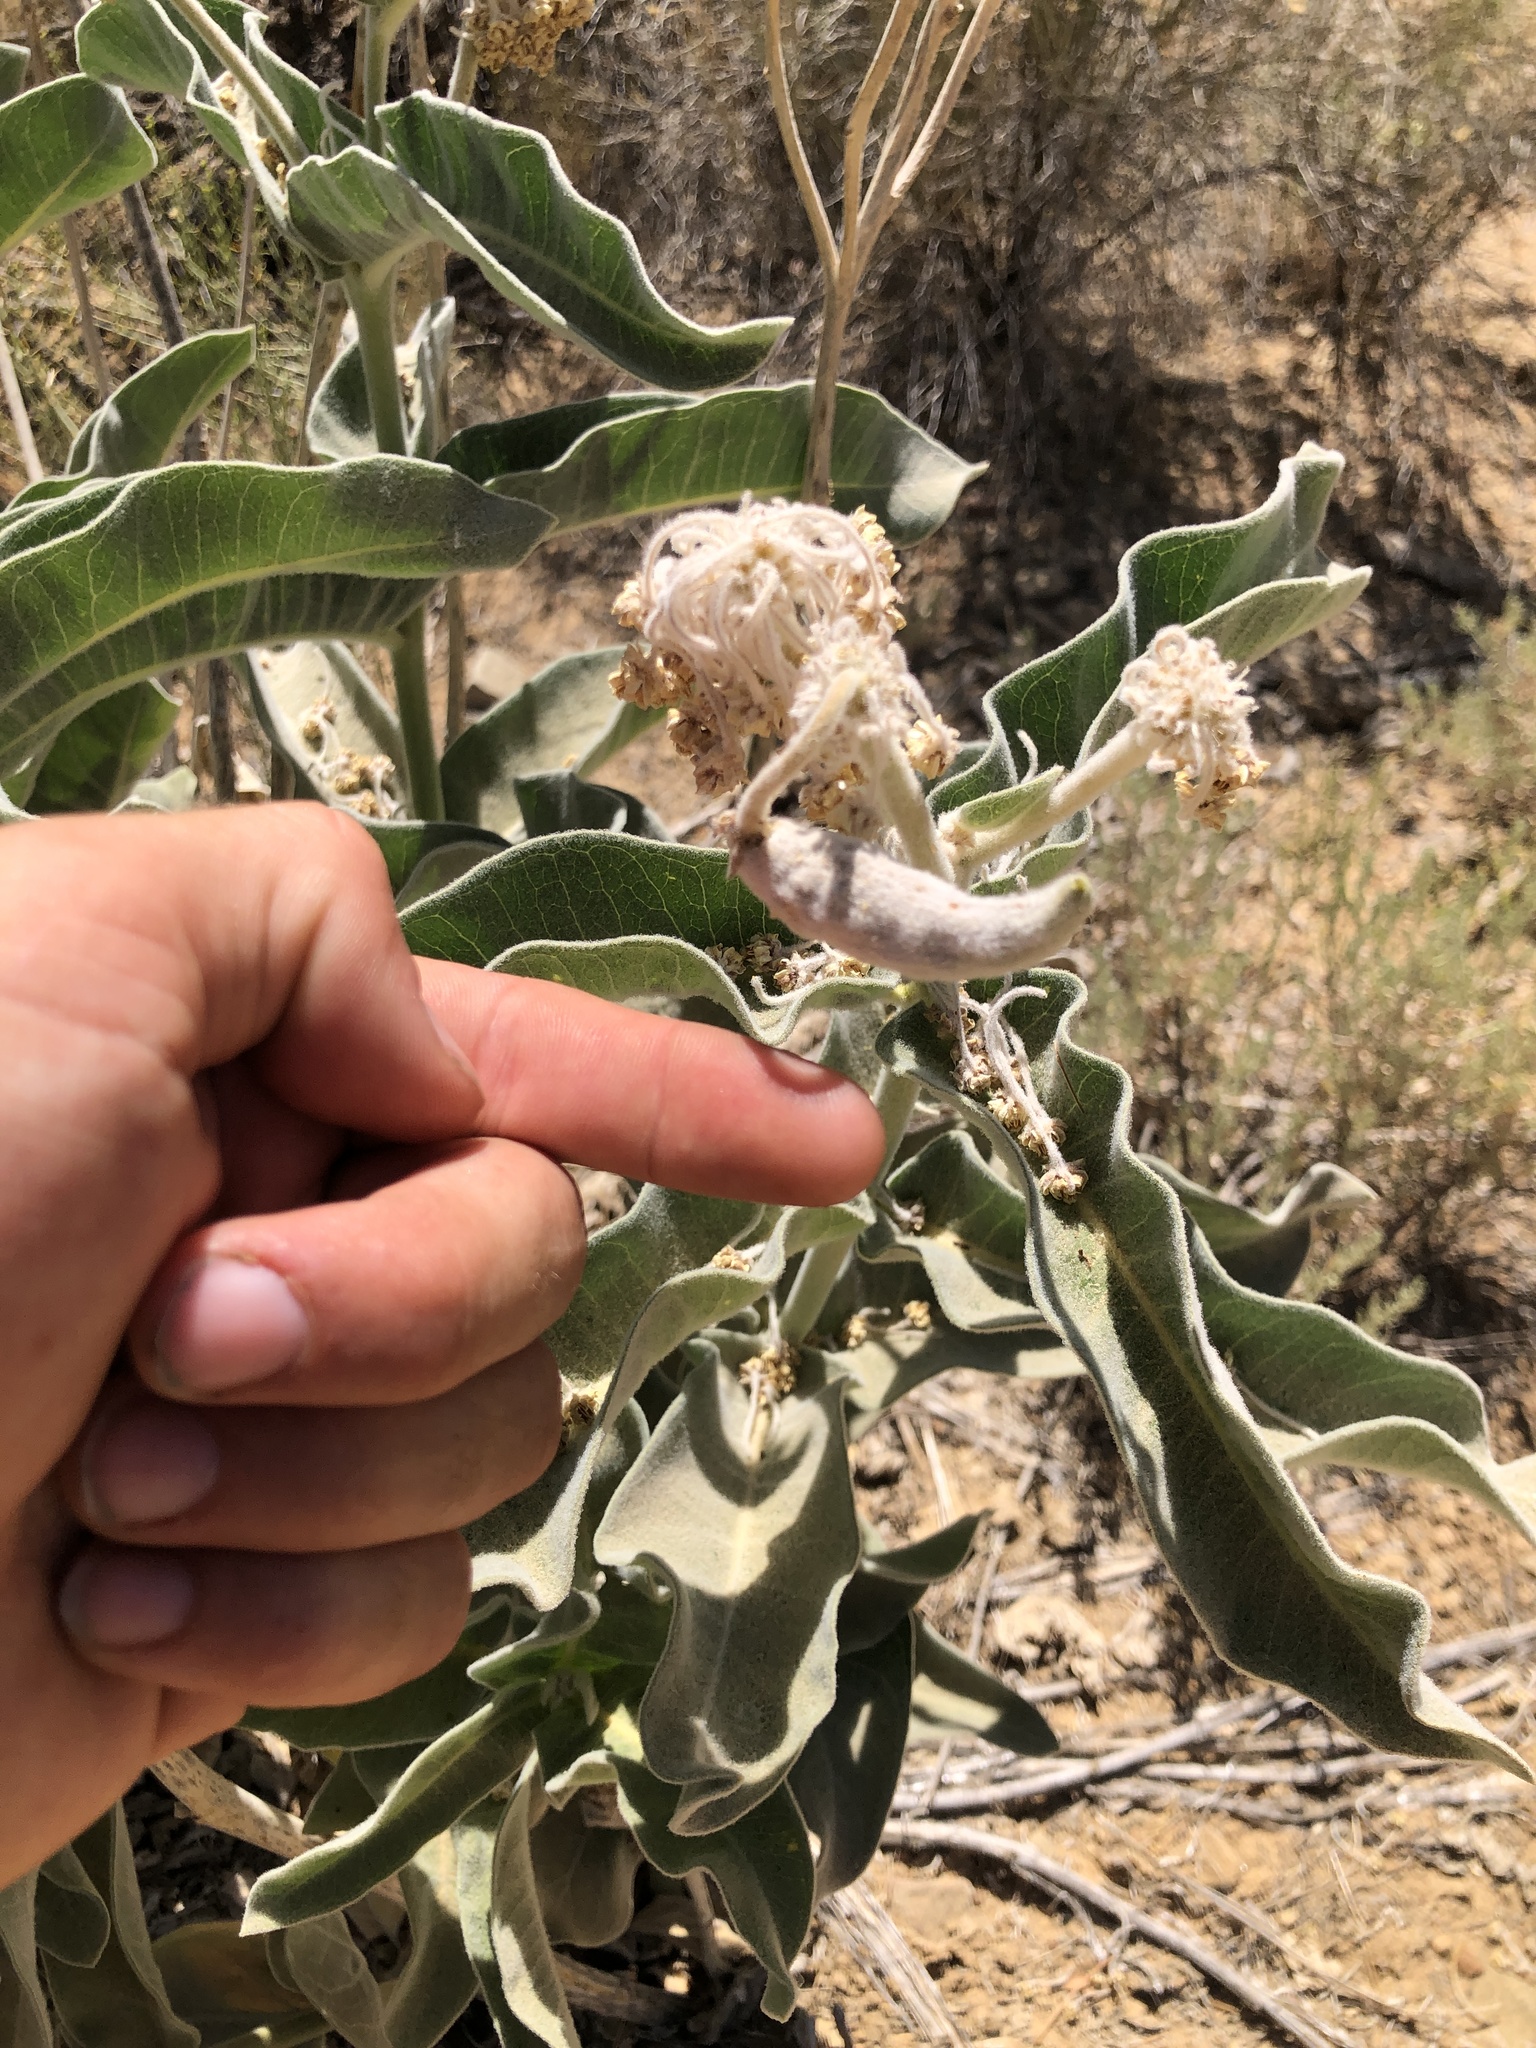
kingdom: Plantae
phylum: Tracheophyta
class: Magnoliopsida
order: Gentianales
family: Apocynaceae
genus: Asclepias
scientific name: Asclepias eriocarpa
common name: Indian milkweed
